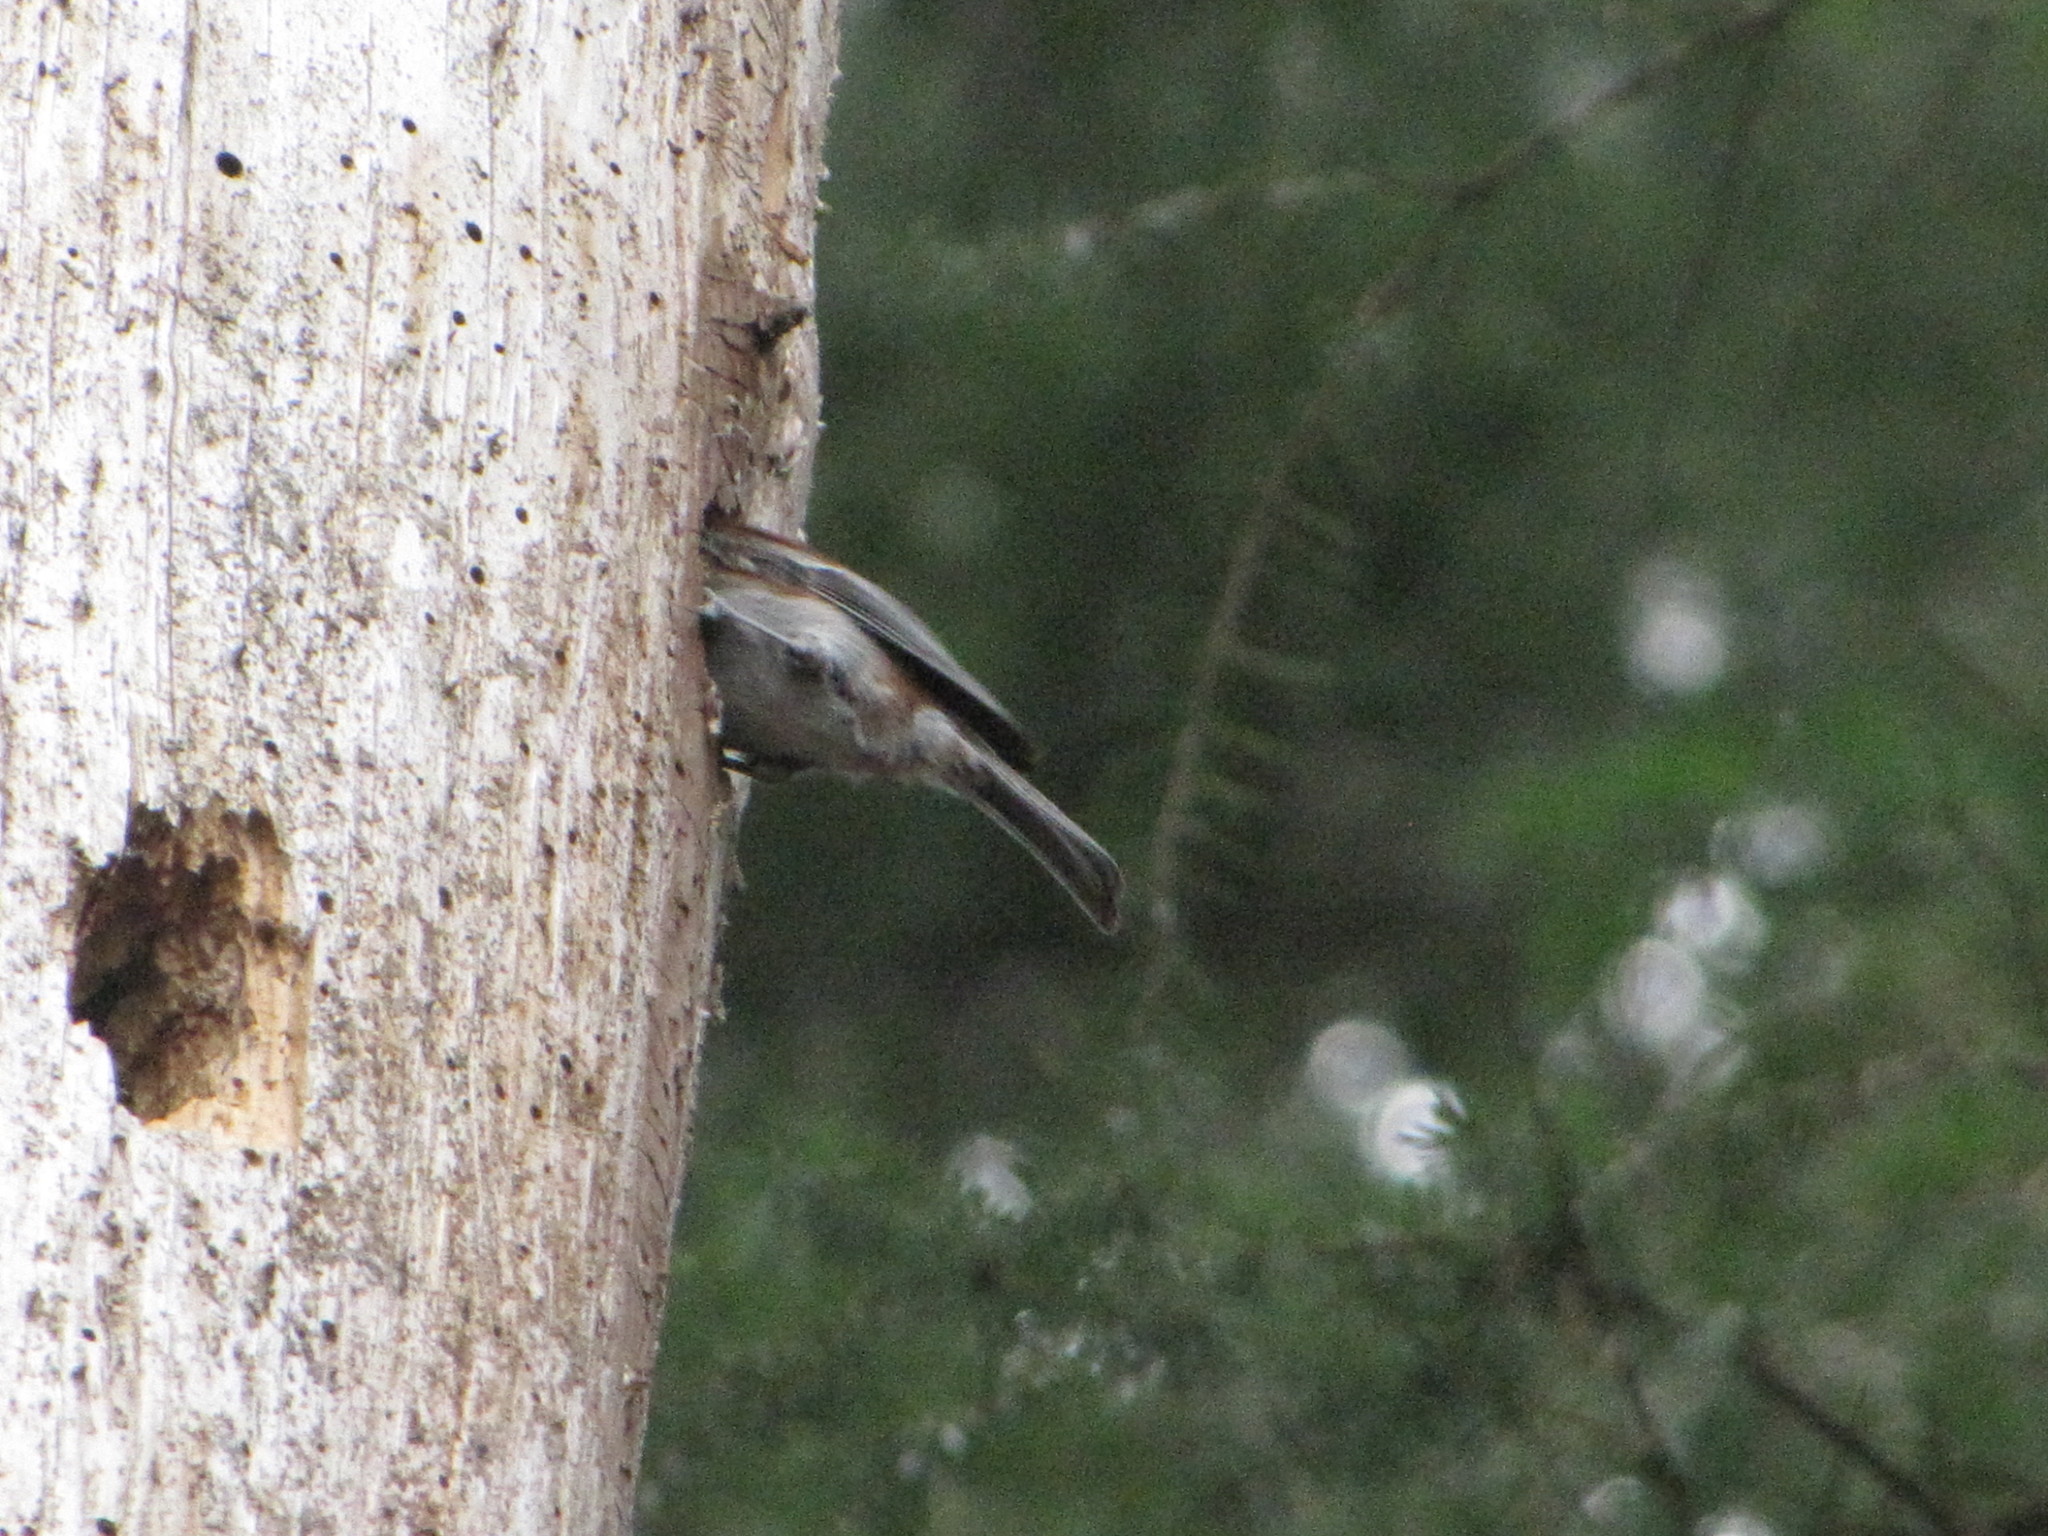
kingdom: Animalia
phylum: Chordata
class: Aves
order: Passeriformes
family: Paridae
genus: Poecile
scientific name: Poecile rufescens
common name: Chestnut-backed chickadee
